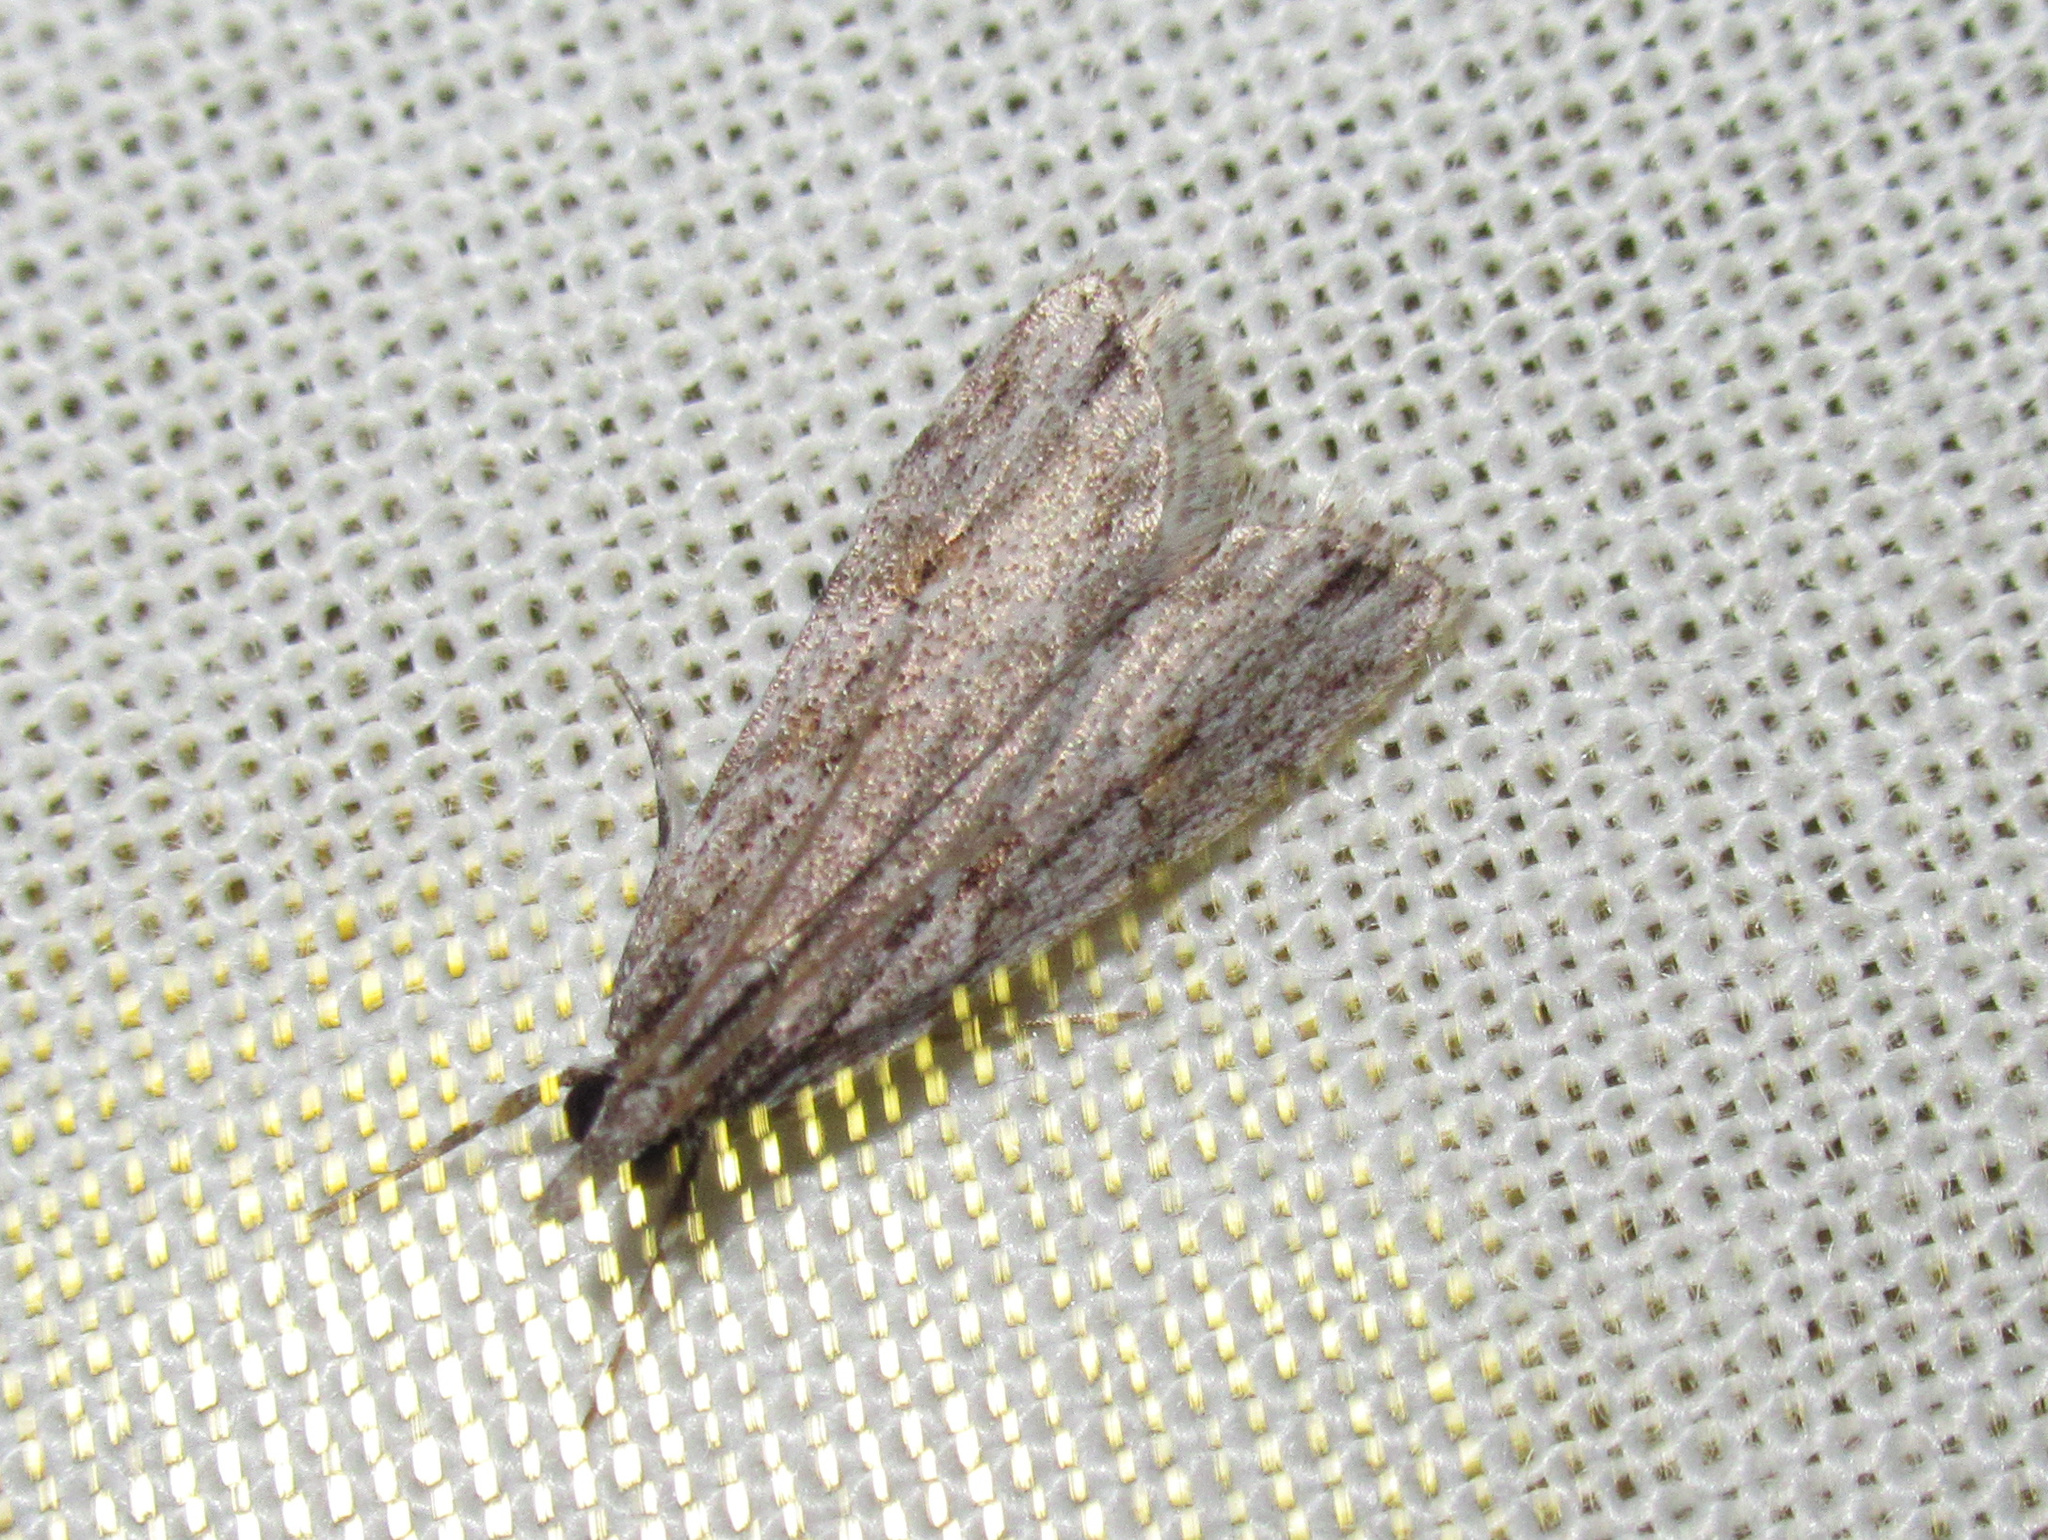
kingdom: Animalia
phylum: Arthropoda
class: Insecta
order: Lepidoptera
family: Crambidae
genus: Scoparia
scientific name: Scoparia chalicodes
